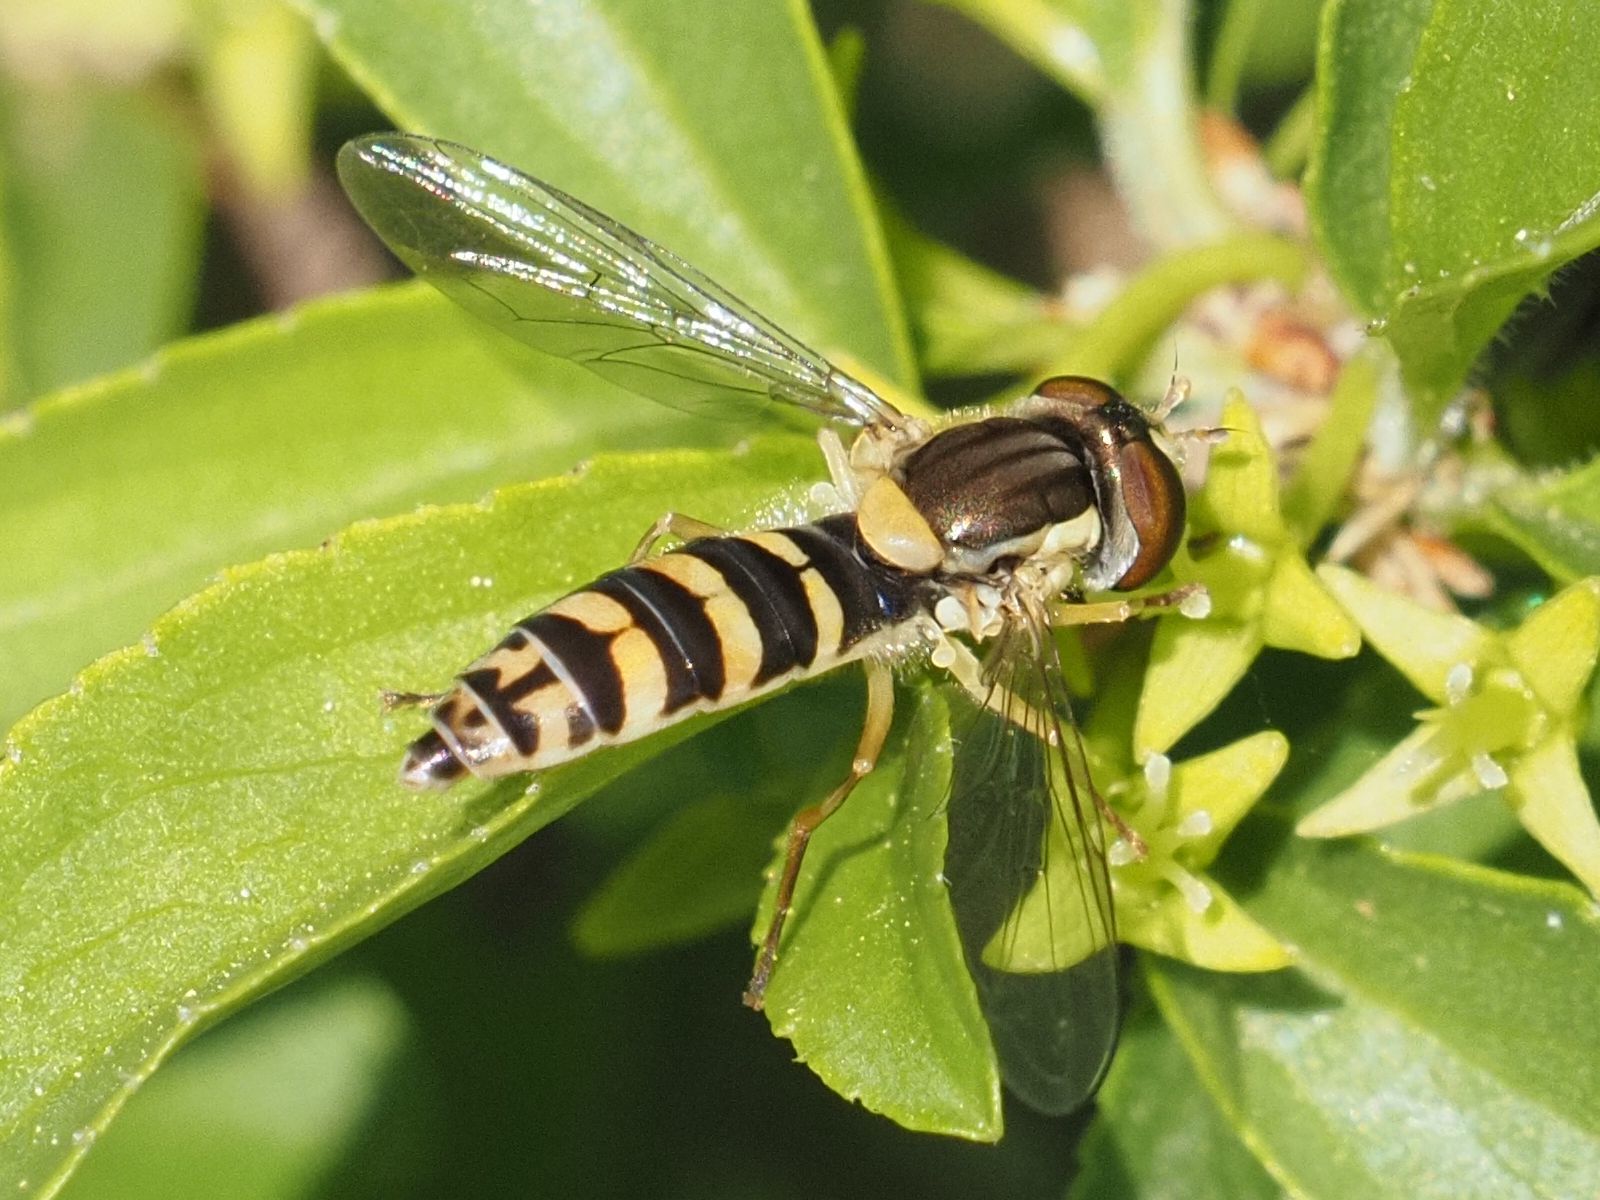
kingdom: Animalia
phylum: Arthropoda
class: Insecta
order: Diptera
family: Syrphidae
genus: Sphaerophoria
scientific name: Sphaerophoria
